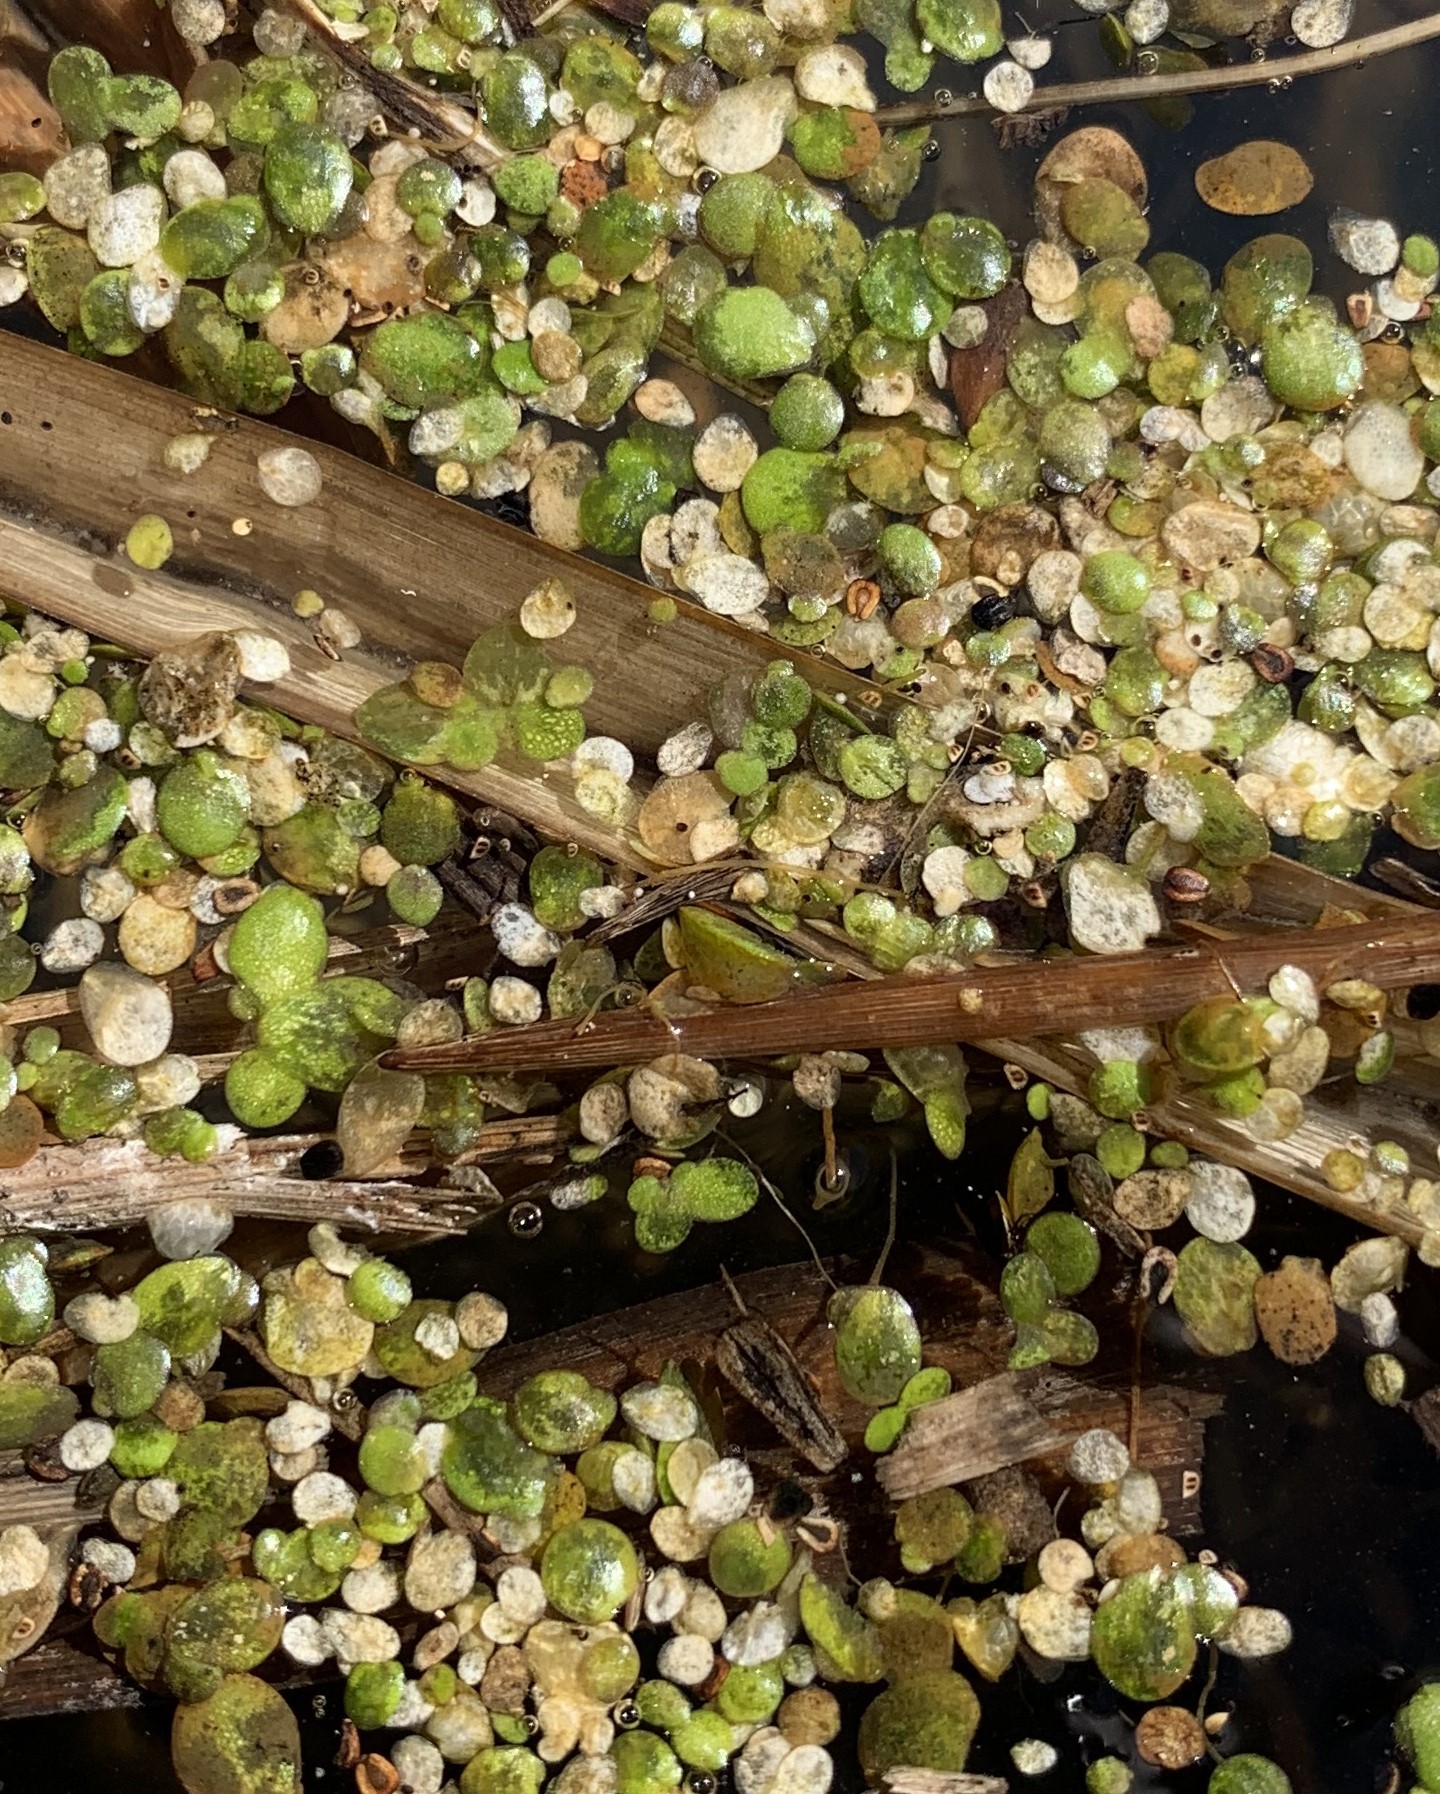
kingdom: Plantae
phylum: Tracheophyta
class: Liliopsida
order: Alismatales
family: Araceae
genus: Lemna
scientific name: Lemna gibba
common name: Fat duckweed
